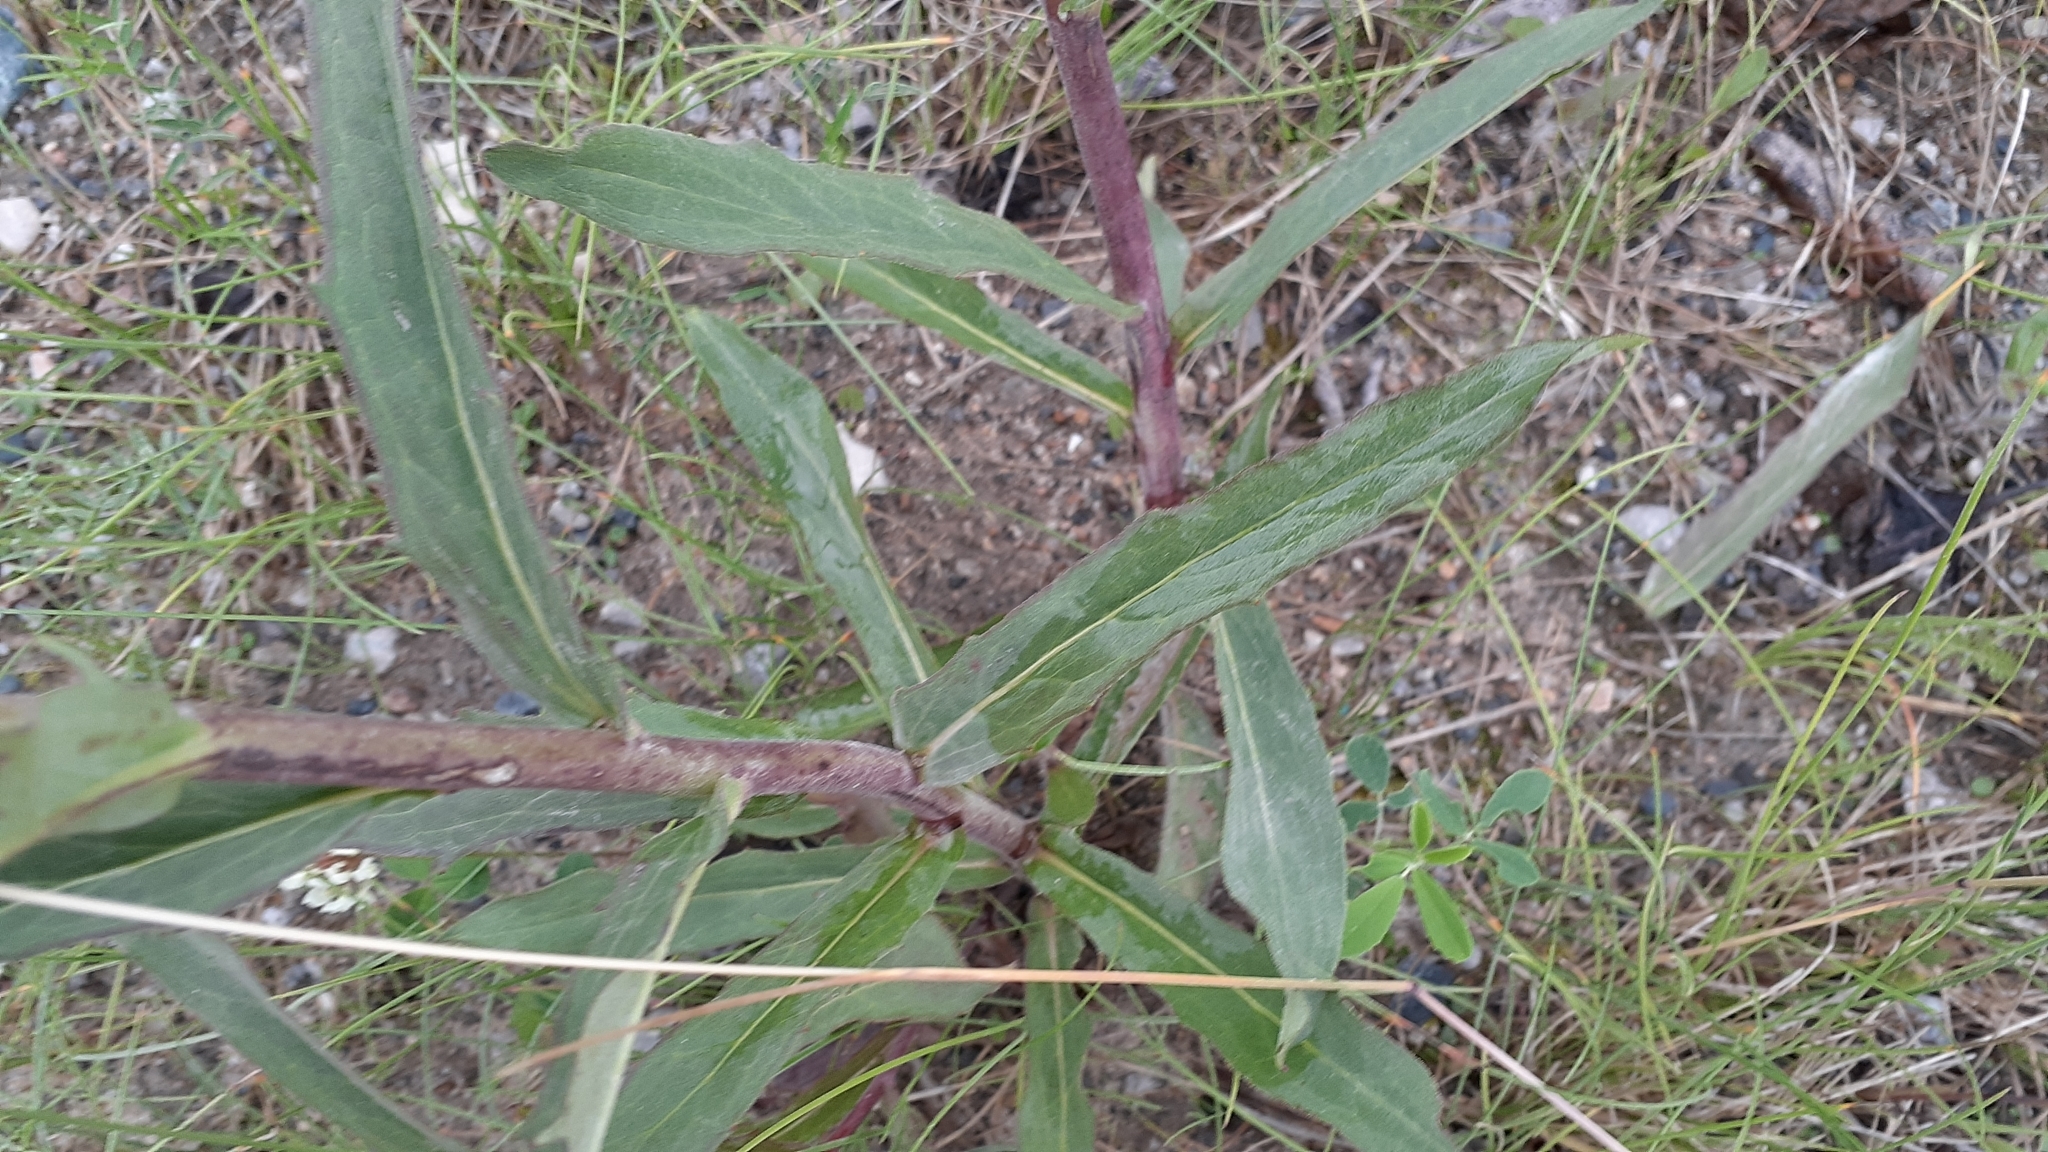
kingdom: Plantae
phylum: Tracheophyta
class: Magnoliopsida
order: Asterales
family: Asteraceae
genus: Hieracium
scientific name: Hieracium umbellatum
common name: Northern hawkweed
